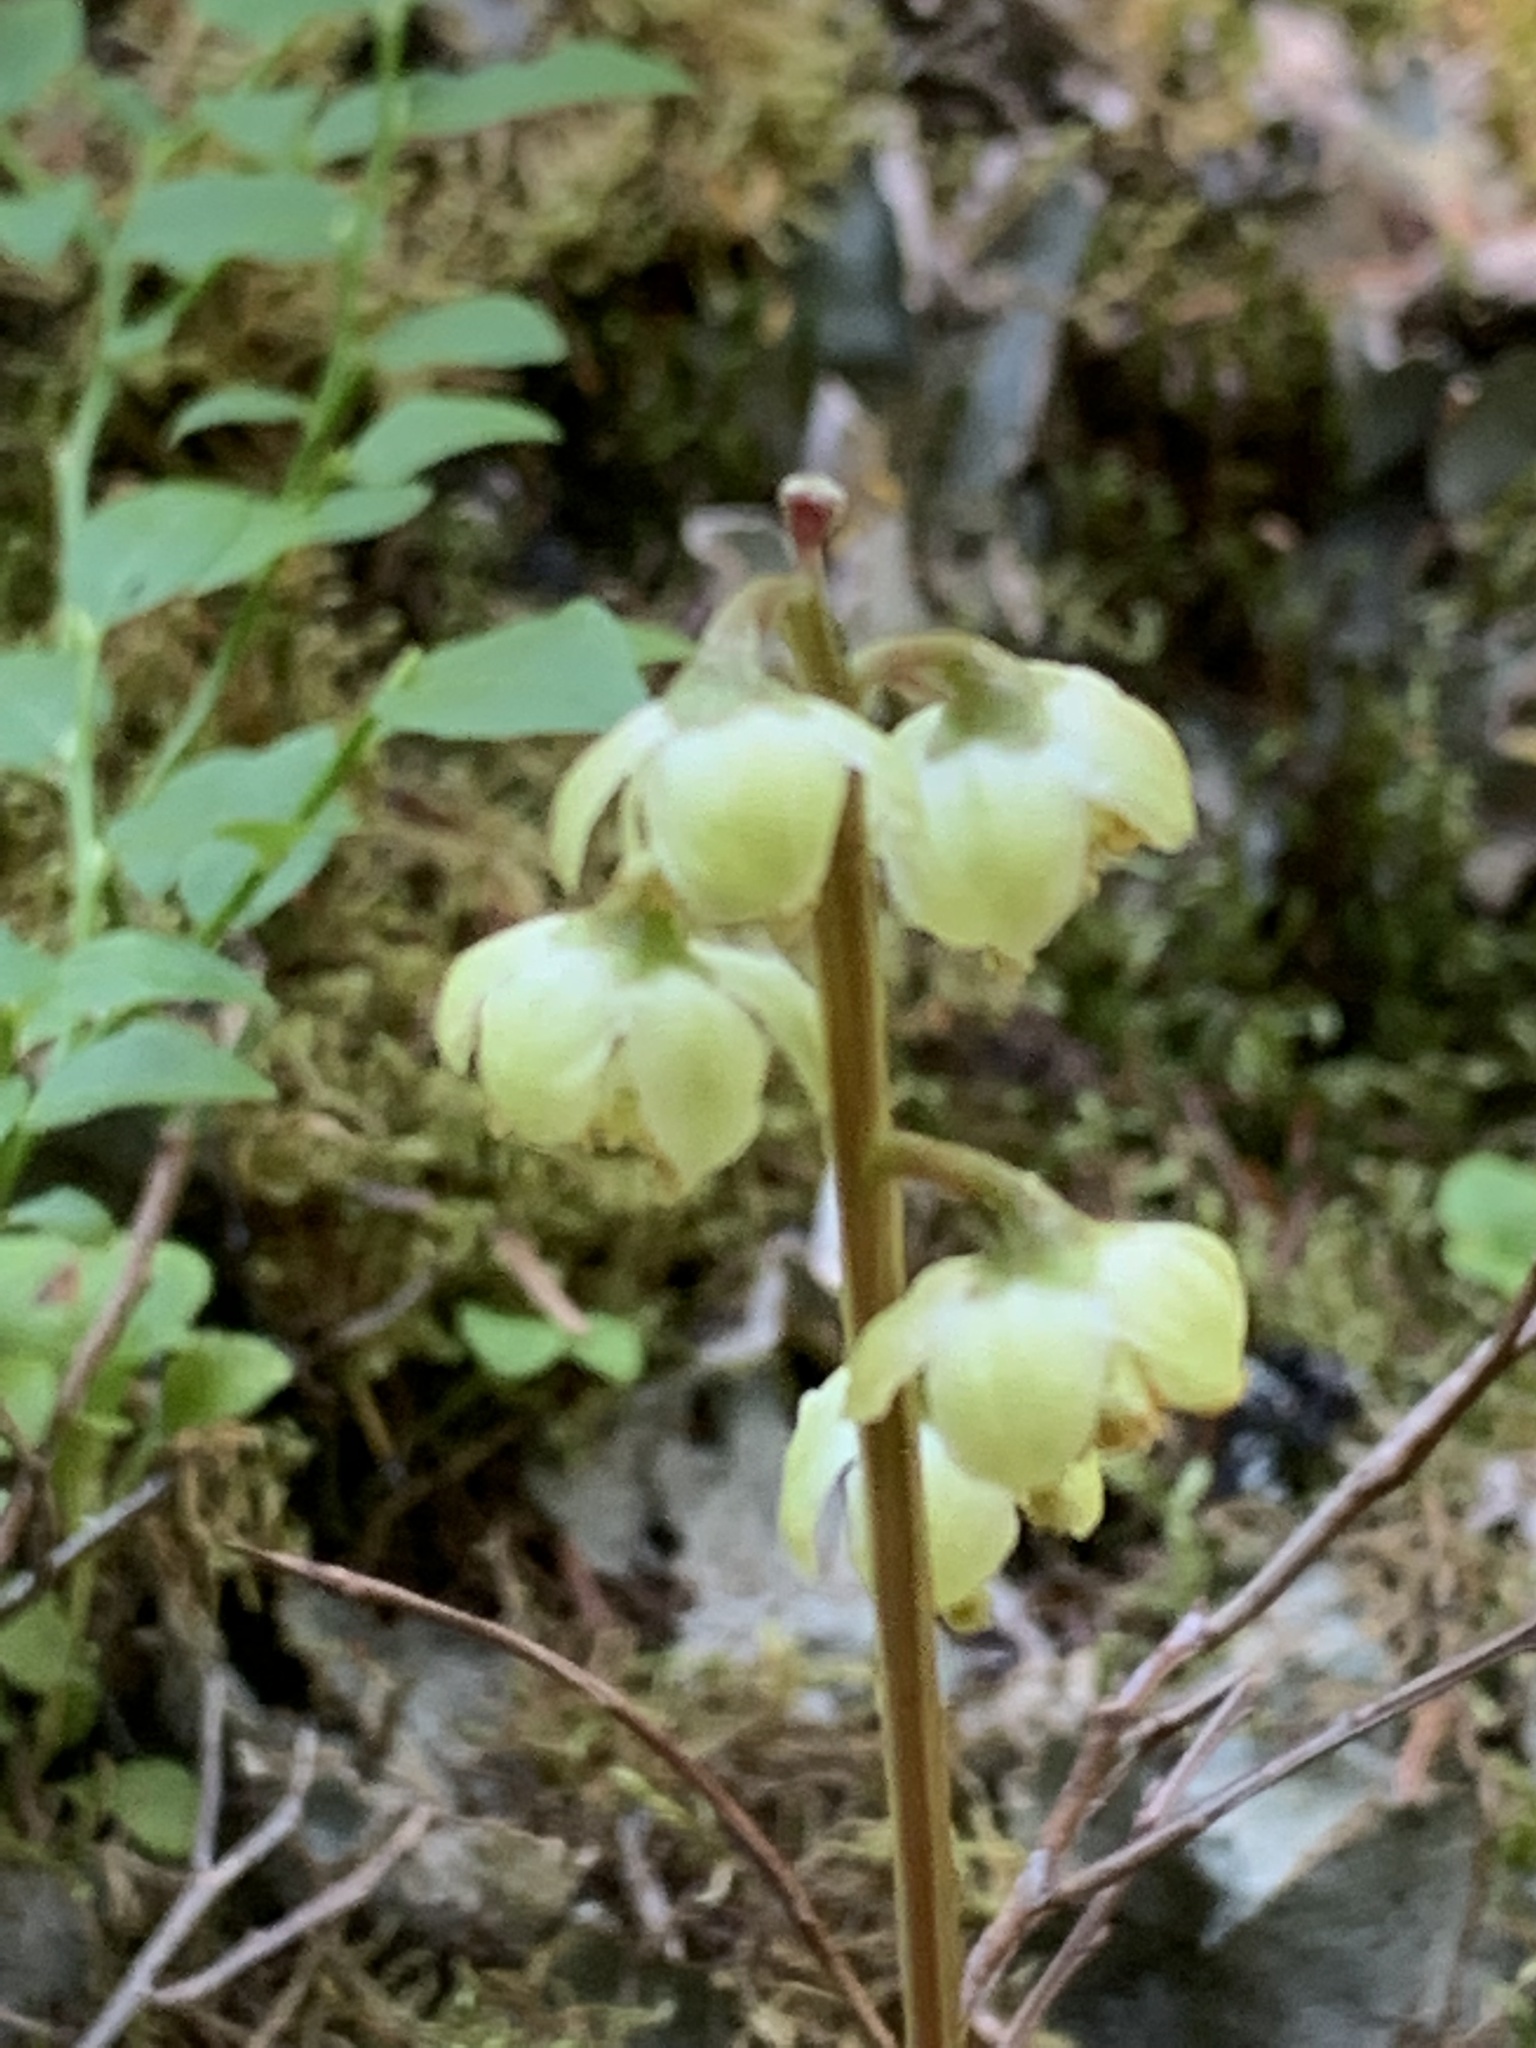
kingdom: Plantae
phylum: Tracheophyta
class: Magnoliopsida
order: Ericales
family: Ericaceae
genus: Pyrola
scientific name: Pyrola chlorantha
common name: Green wintergreen
